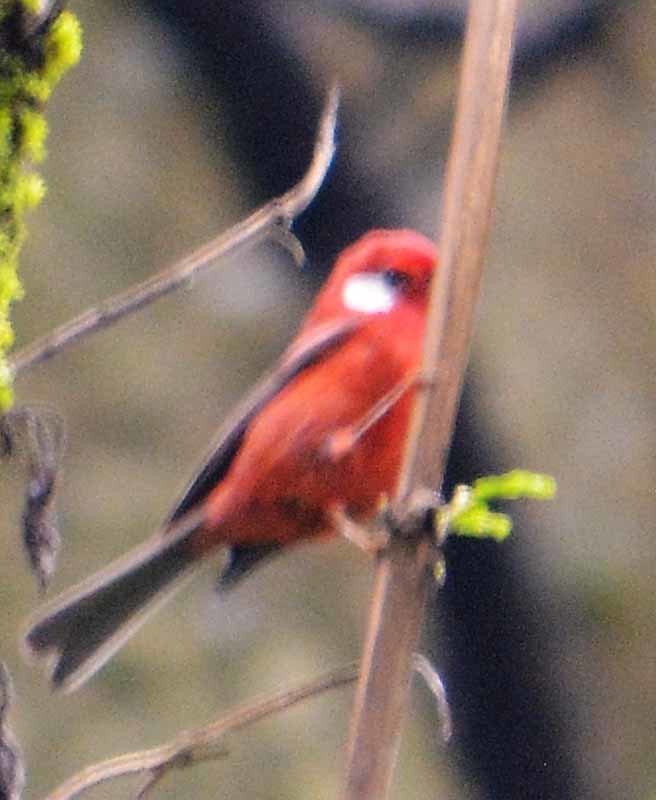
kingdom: Animalia
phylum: Chordata
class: Aves
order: Passeriformes
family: Parulidae
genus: Cardellina
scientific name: Cardellina rubra
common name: Red warbler
